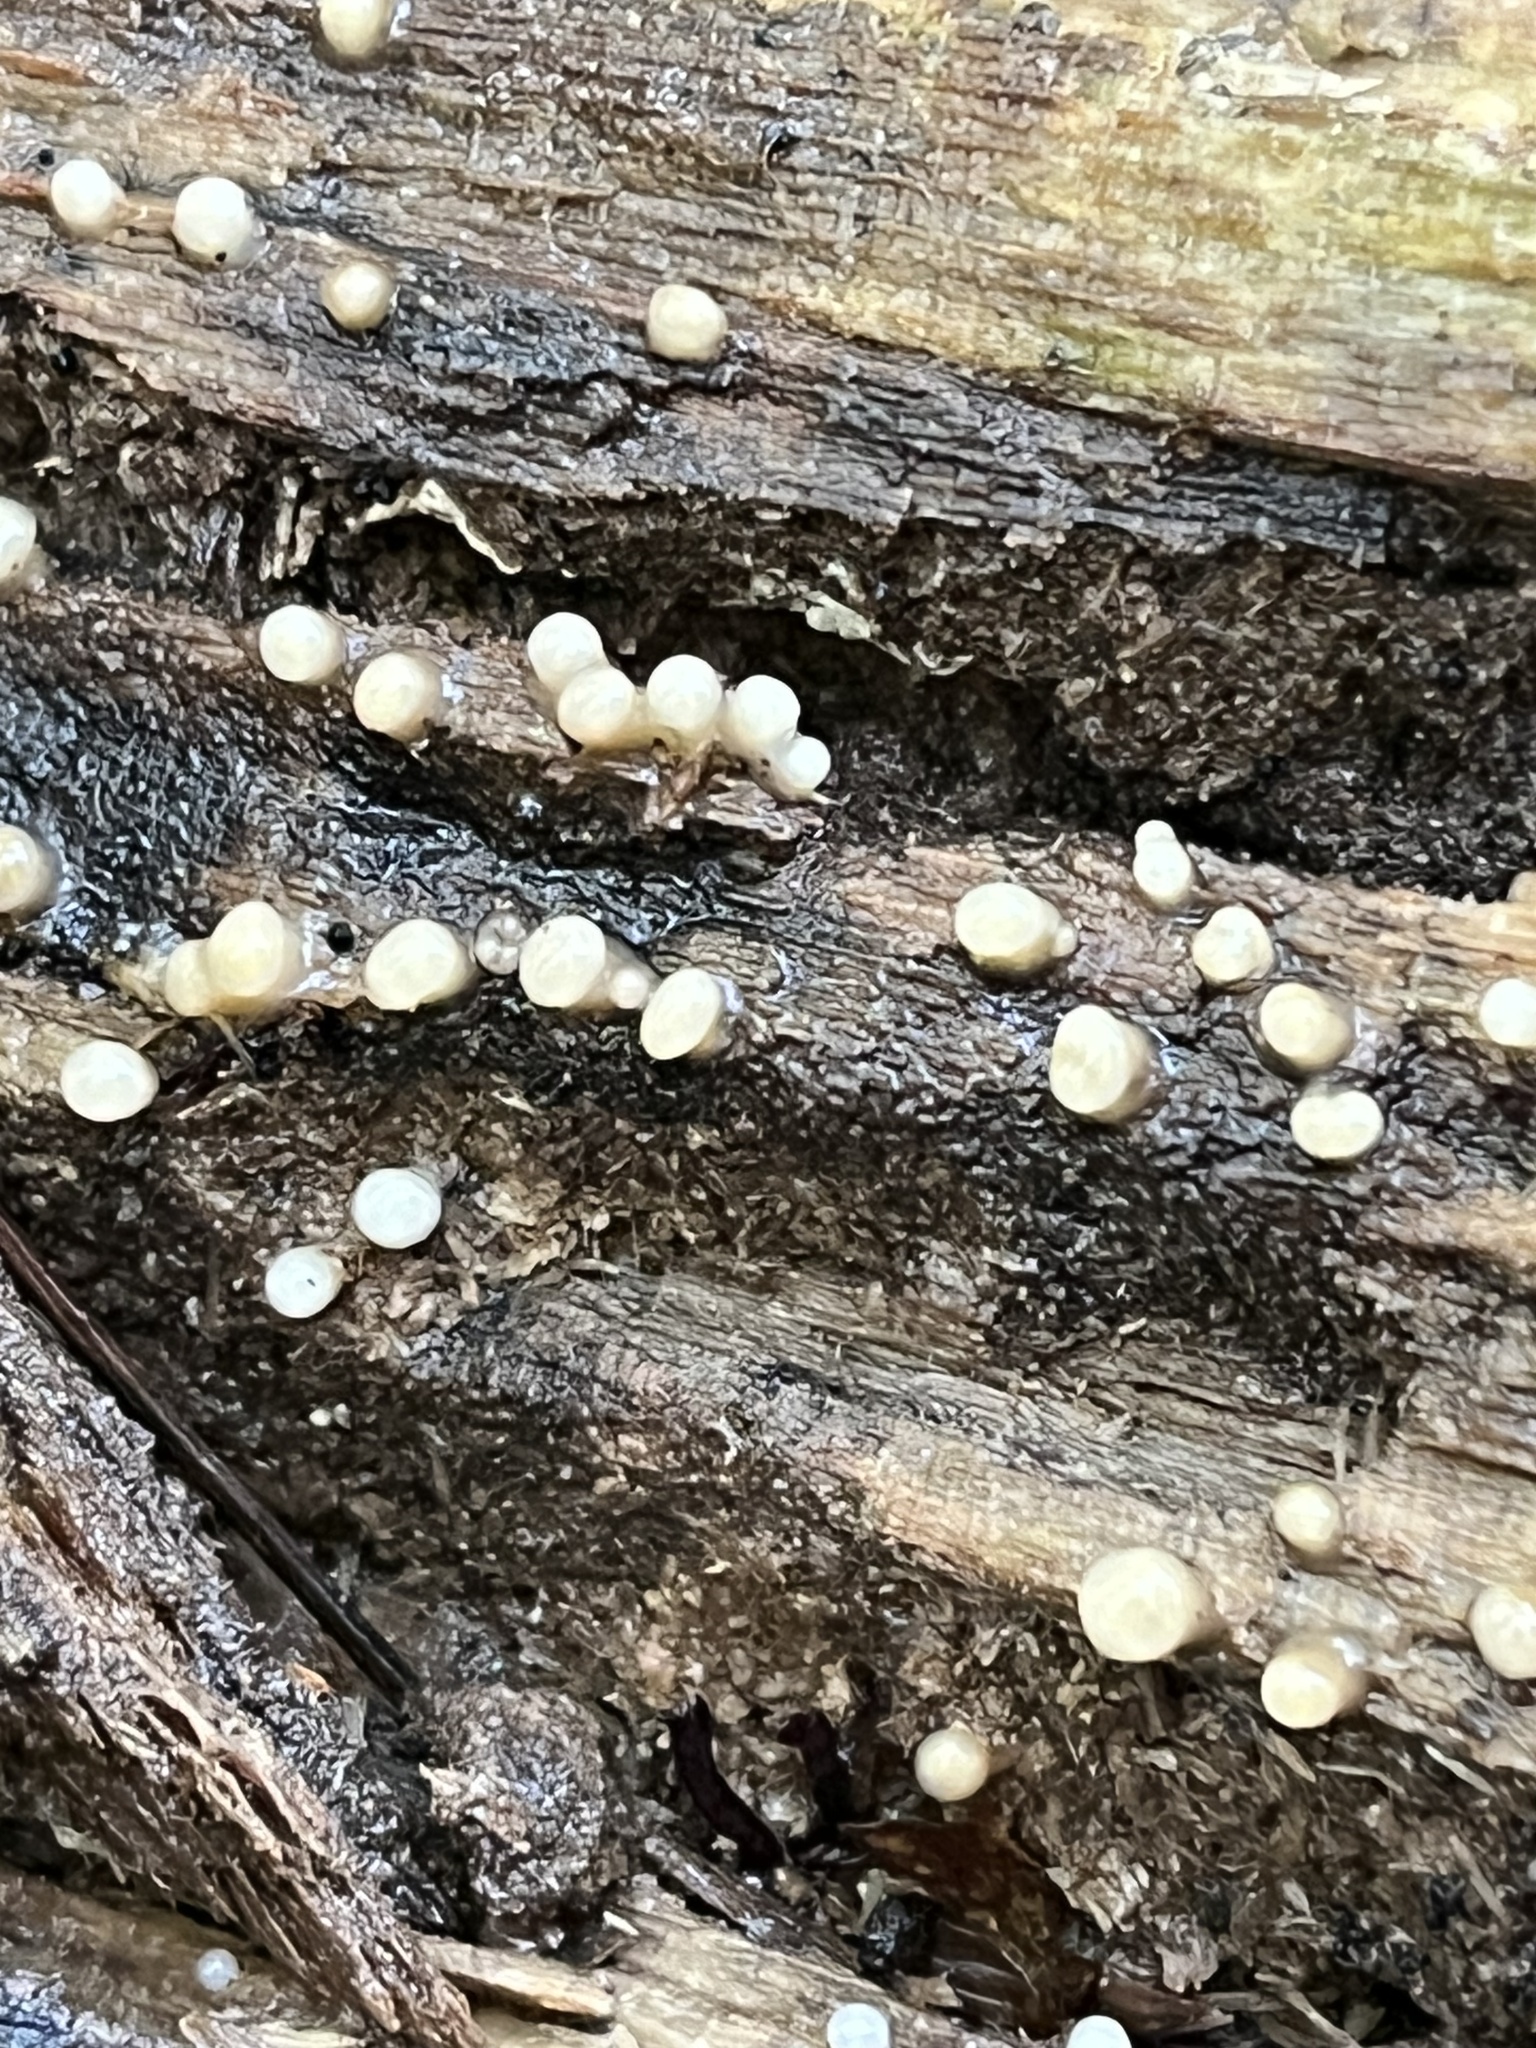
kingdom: Fungi
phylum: Basidiomycota
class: Atractiellomycetes
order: Atractiellales
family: Phleogenaceae
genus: Helicogloea
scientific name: Helicogloea compressa
